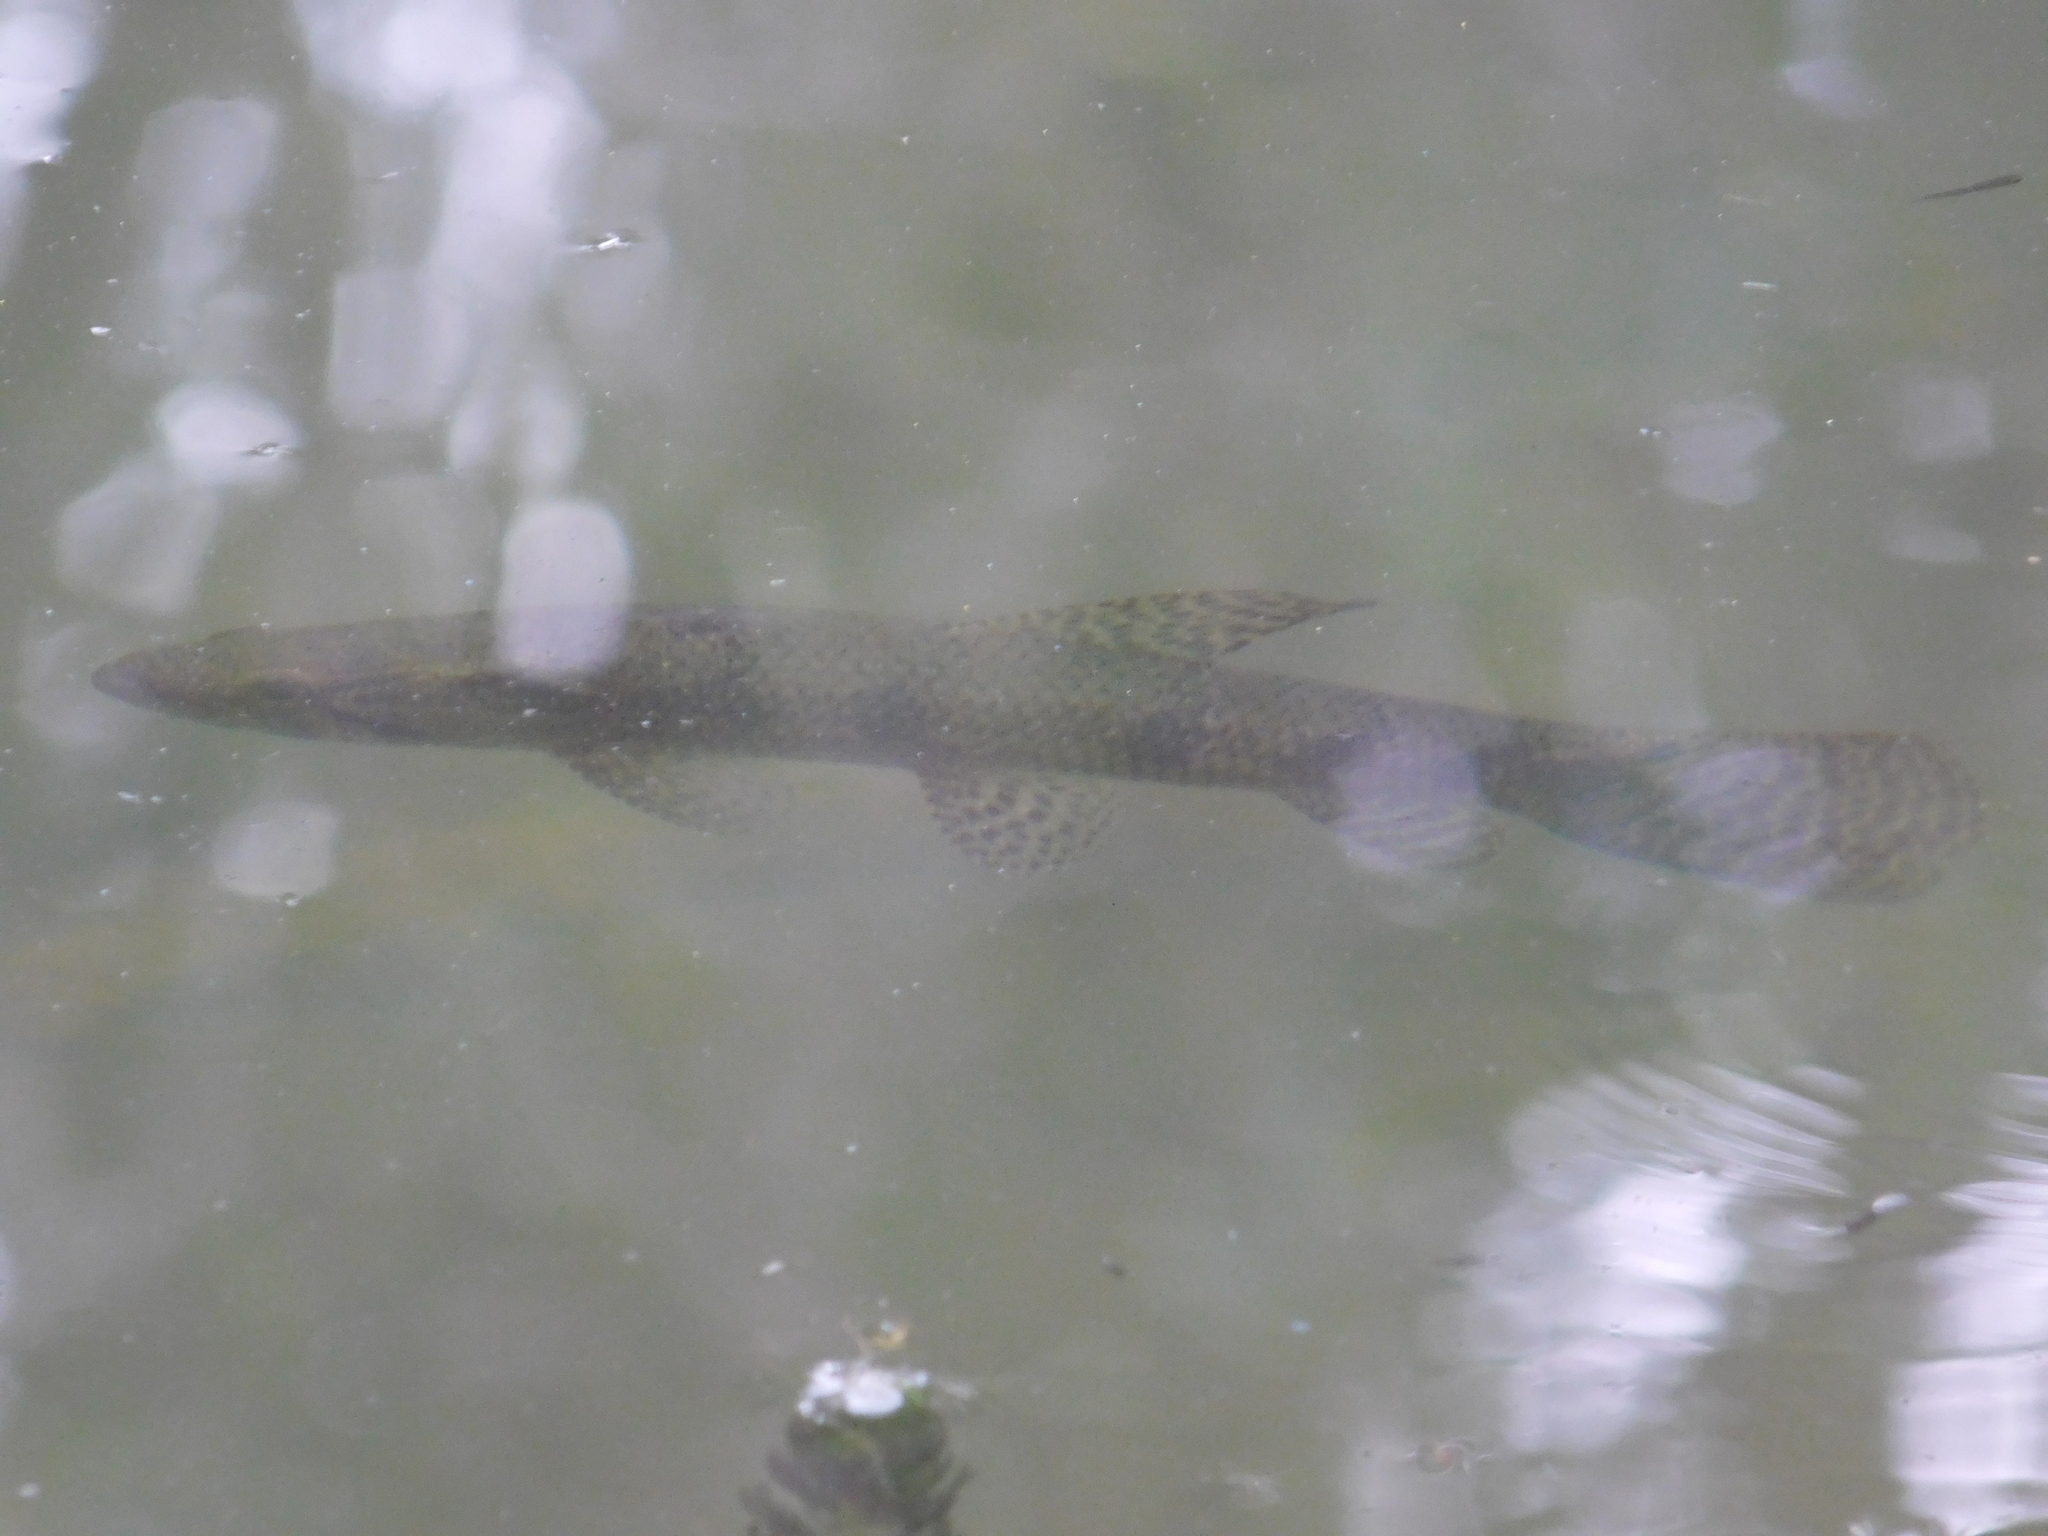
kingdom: Animalia
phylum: Chordata
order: Characiformes
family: Erythrinidae
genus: Hoplias
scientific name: Hoplias argentinensis
